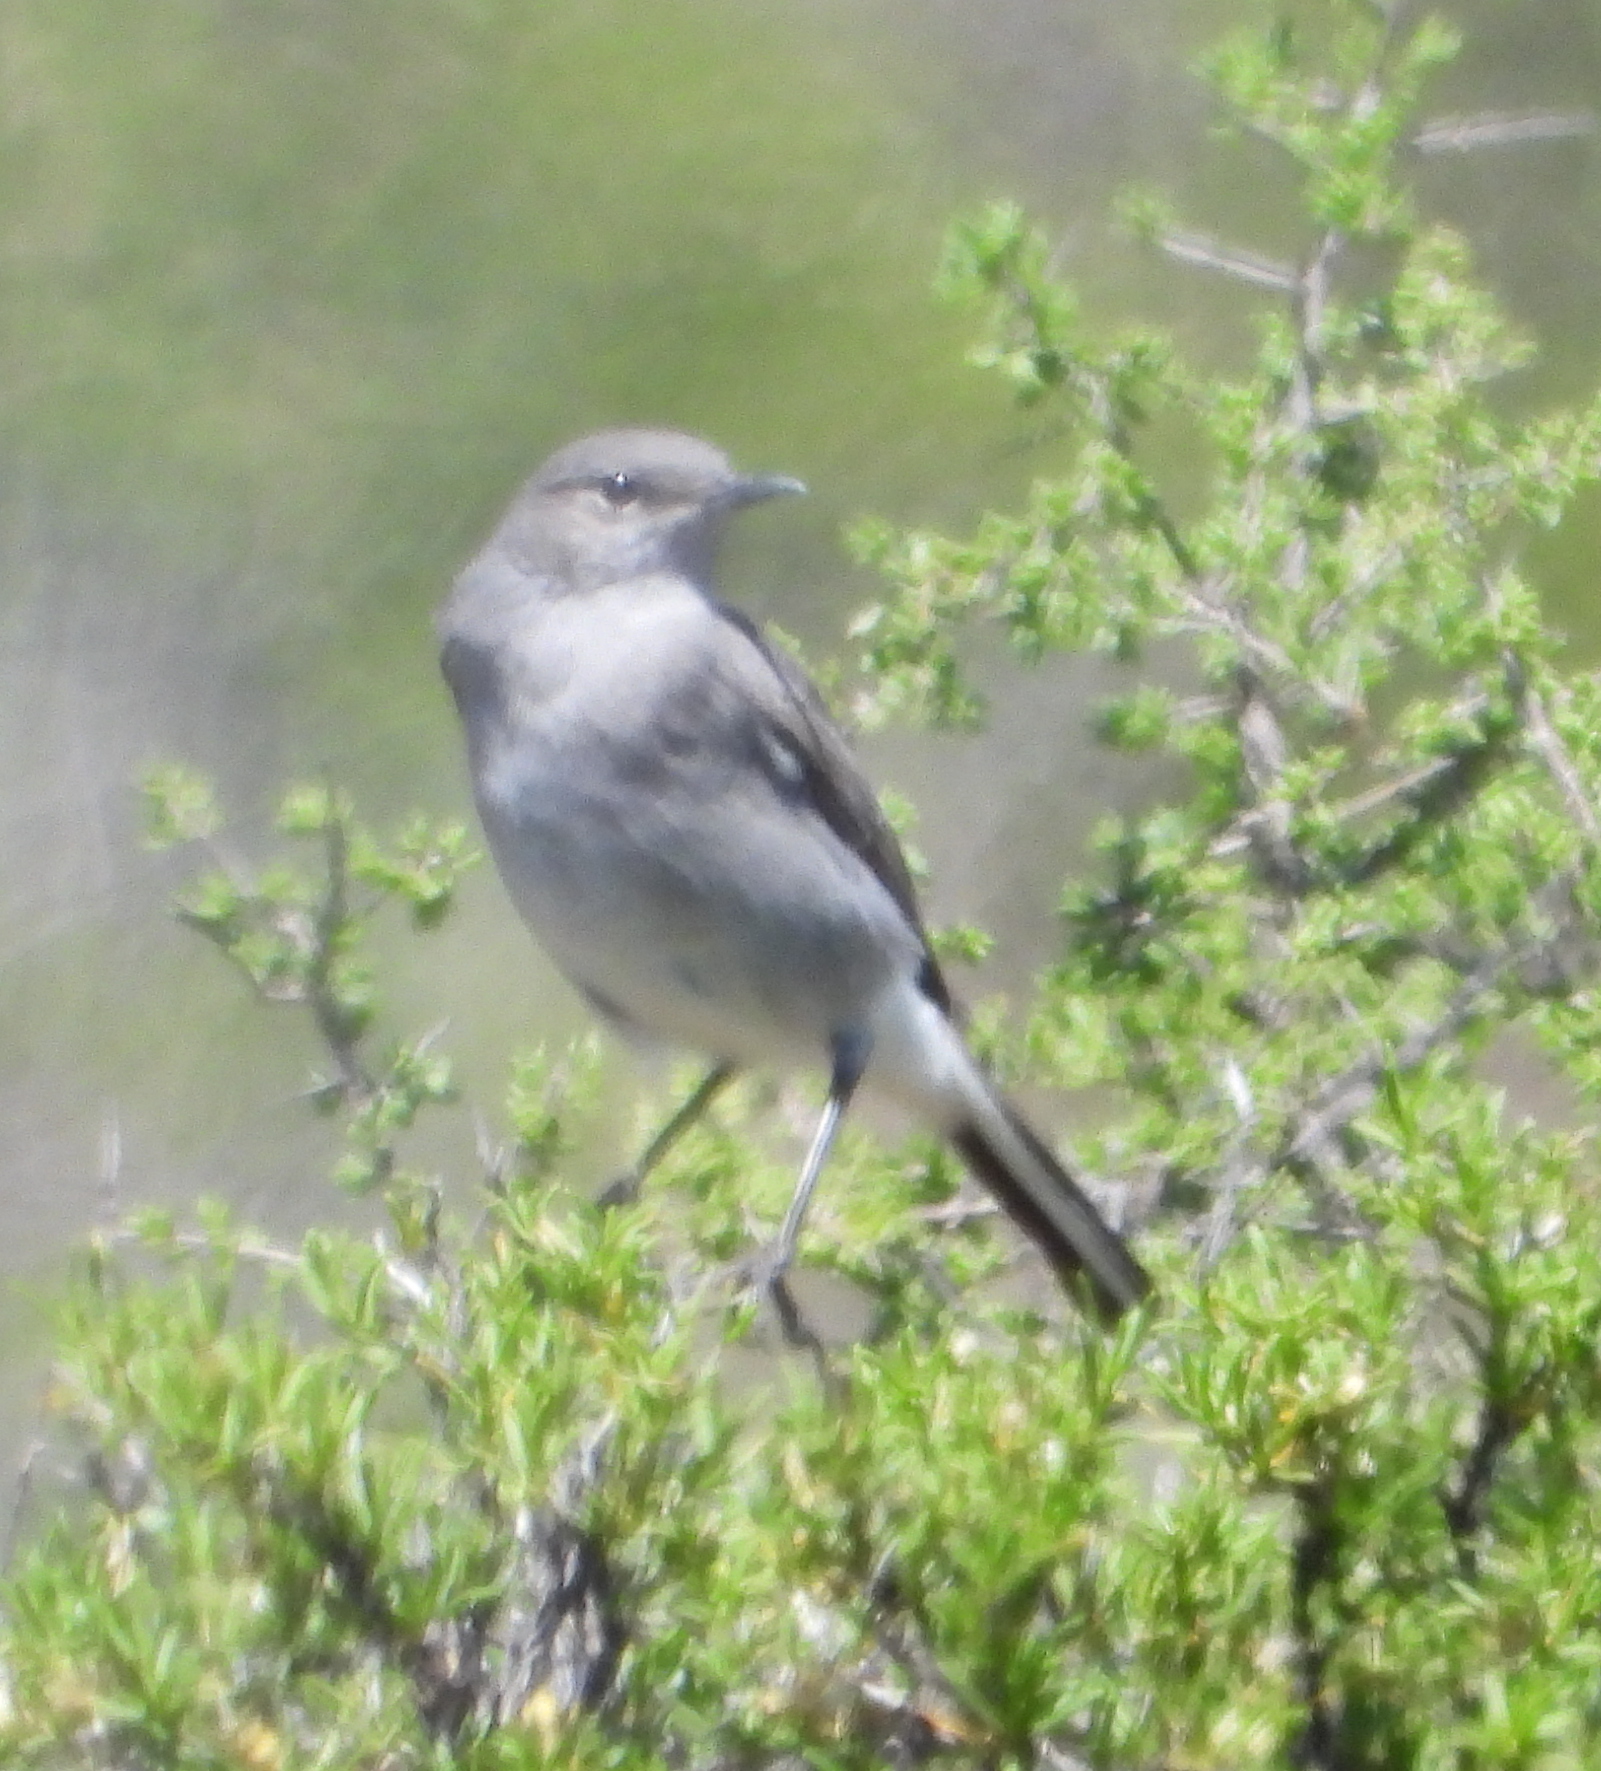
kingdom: Animalia
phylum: Chordata
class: Aves
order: Passeriformes
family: Muscicapidae
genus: Emarginata
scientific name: Emarginata schlegelii
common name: Karoo chat
